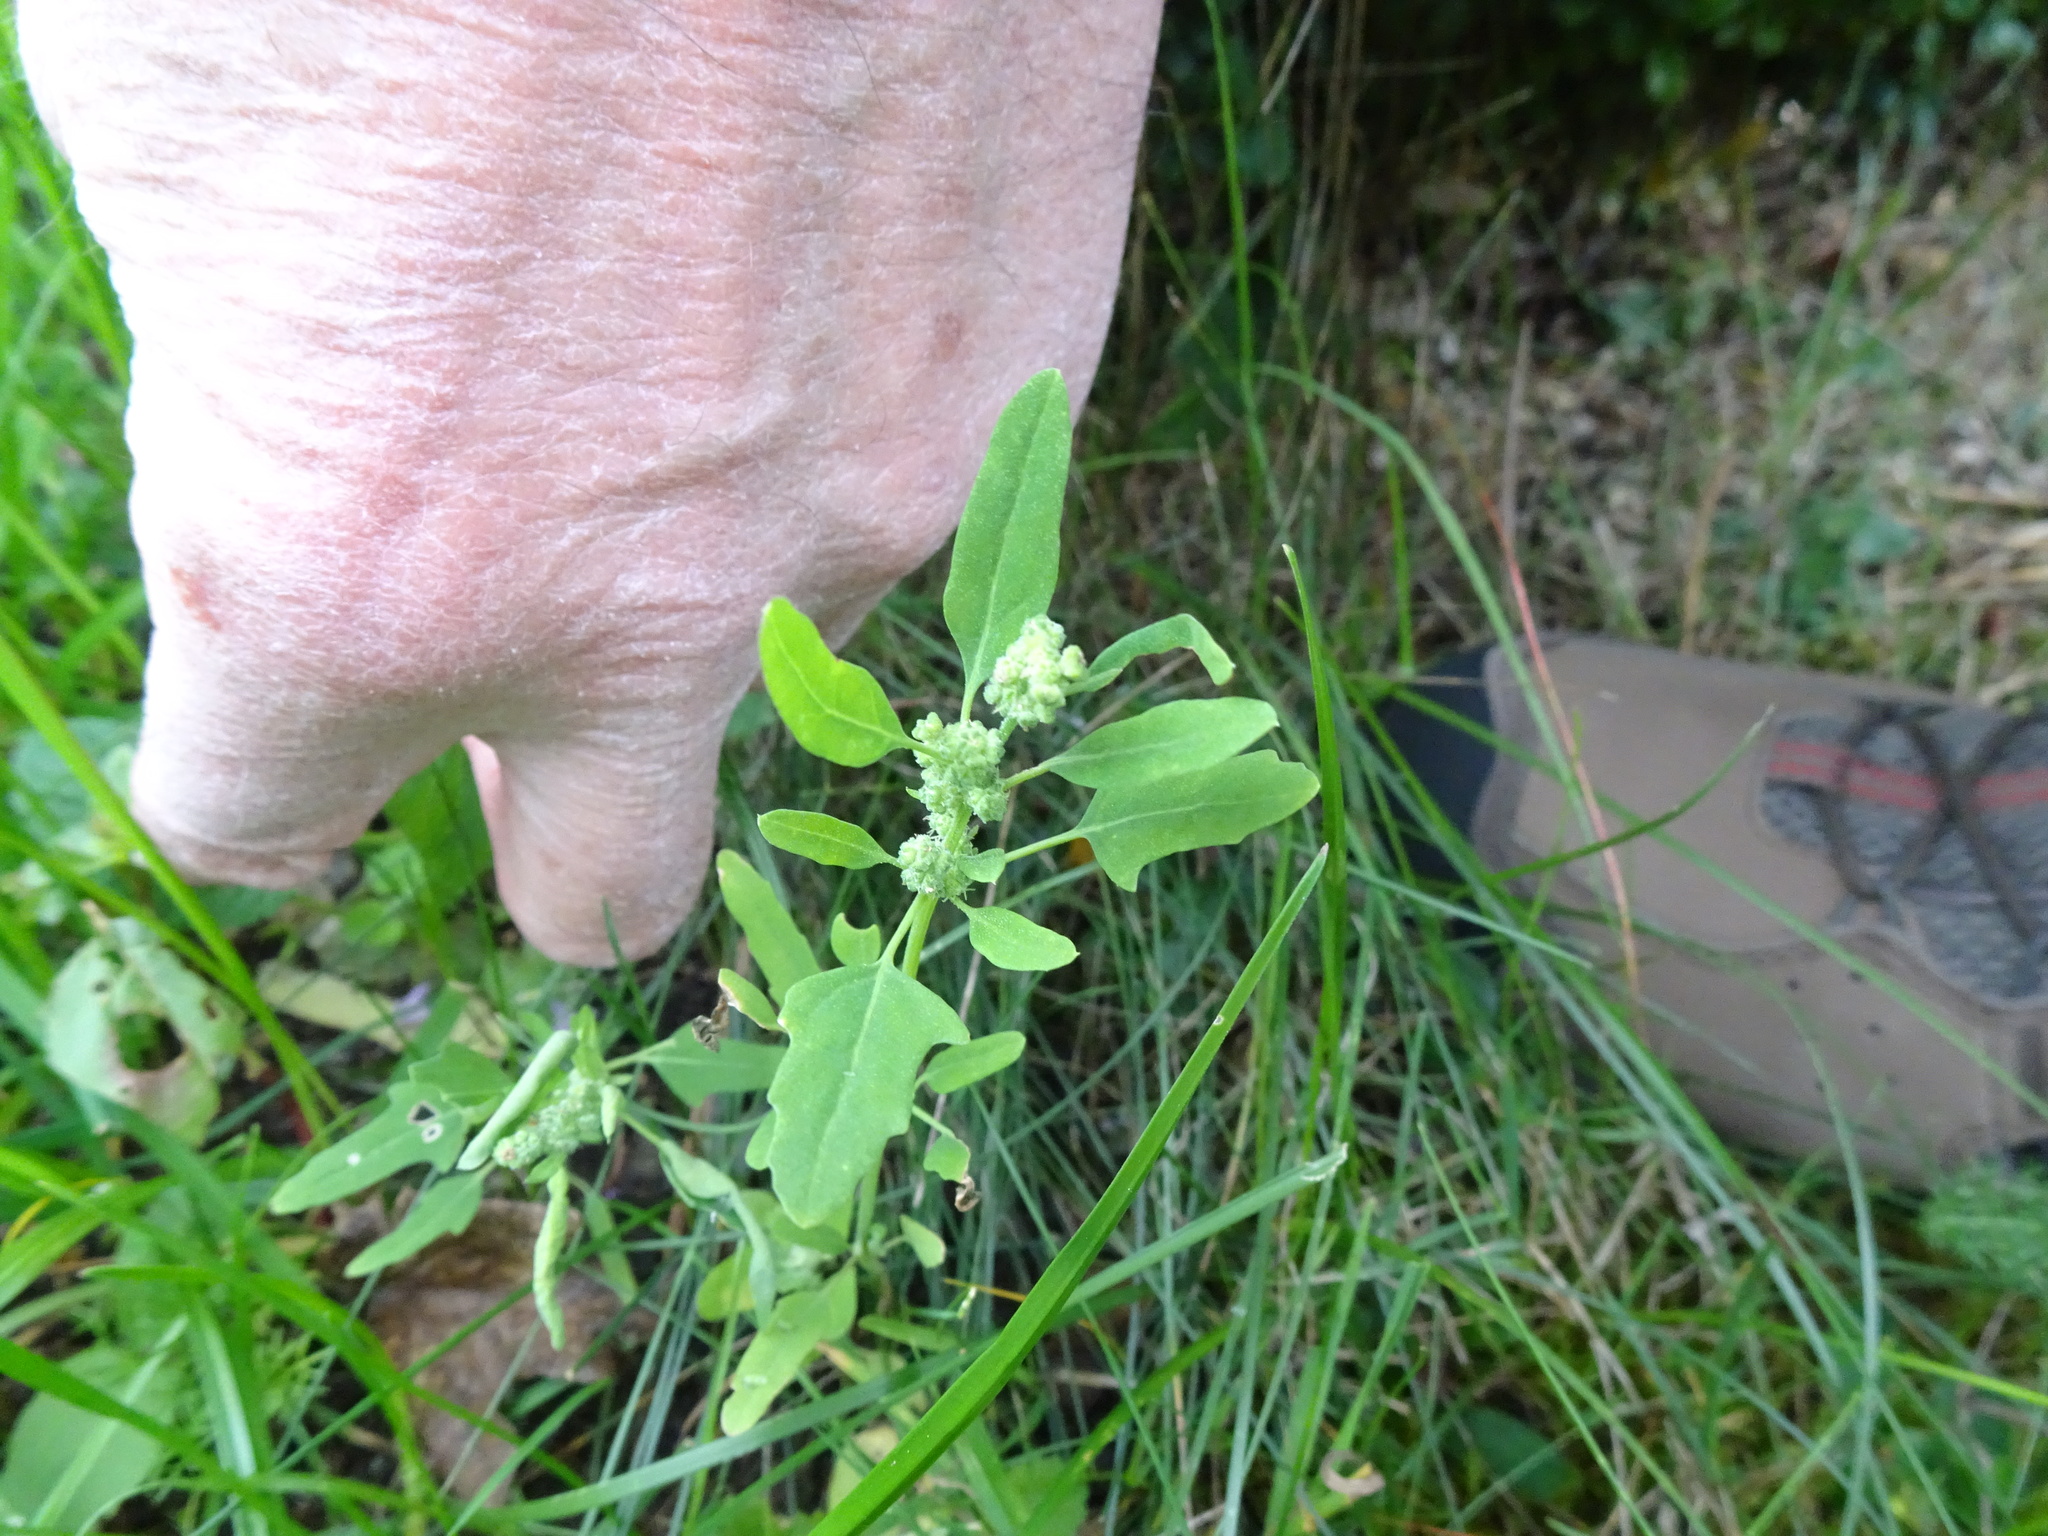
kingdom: Plantae
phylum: Tracheophyta
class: Magnoliopsida
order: Caryophyllales
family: Amaranthaceae
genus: Chenopodium
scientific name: Chenopodium ficifolium
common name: Fig-leaved goosefoot
